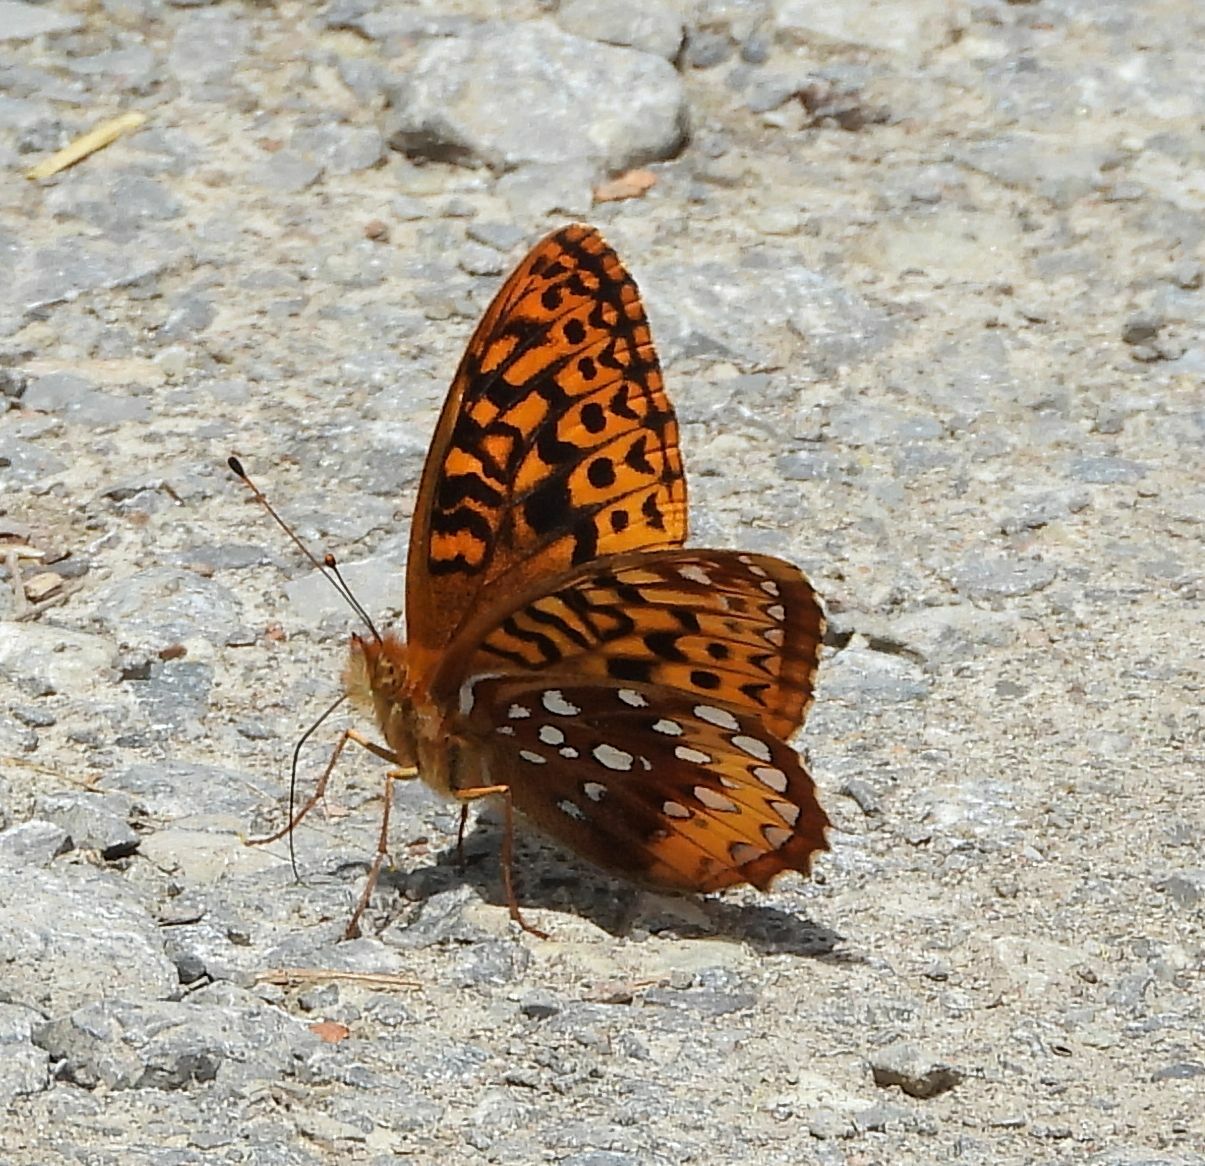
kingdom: Animalia
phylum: Arthropoda
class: Insecta
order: Lepidoptera
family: Nymphalidae
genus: Speyeria
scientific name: Speyeria cybele
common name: Great spangled fritillary
